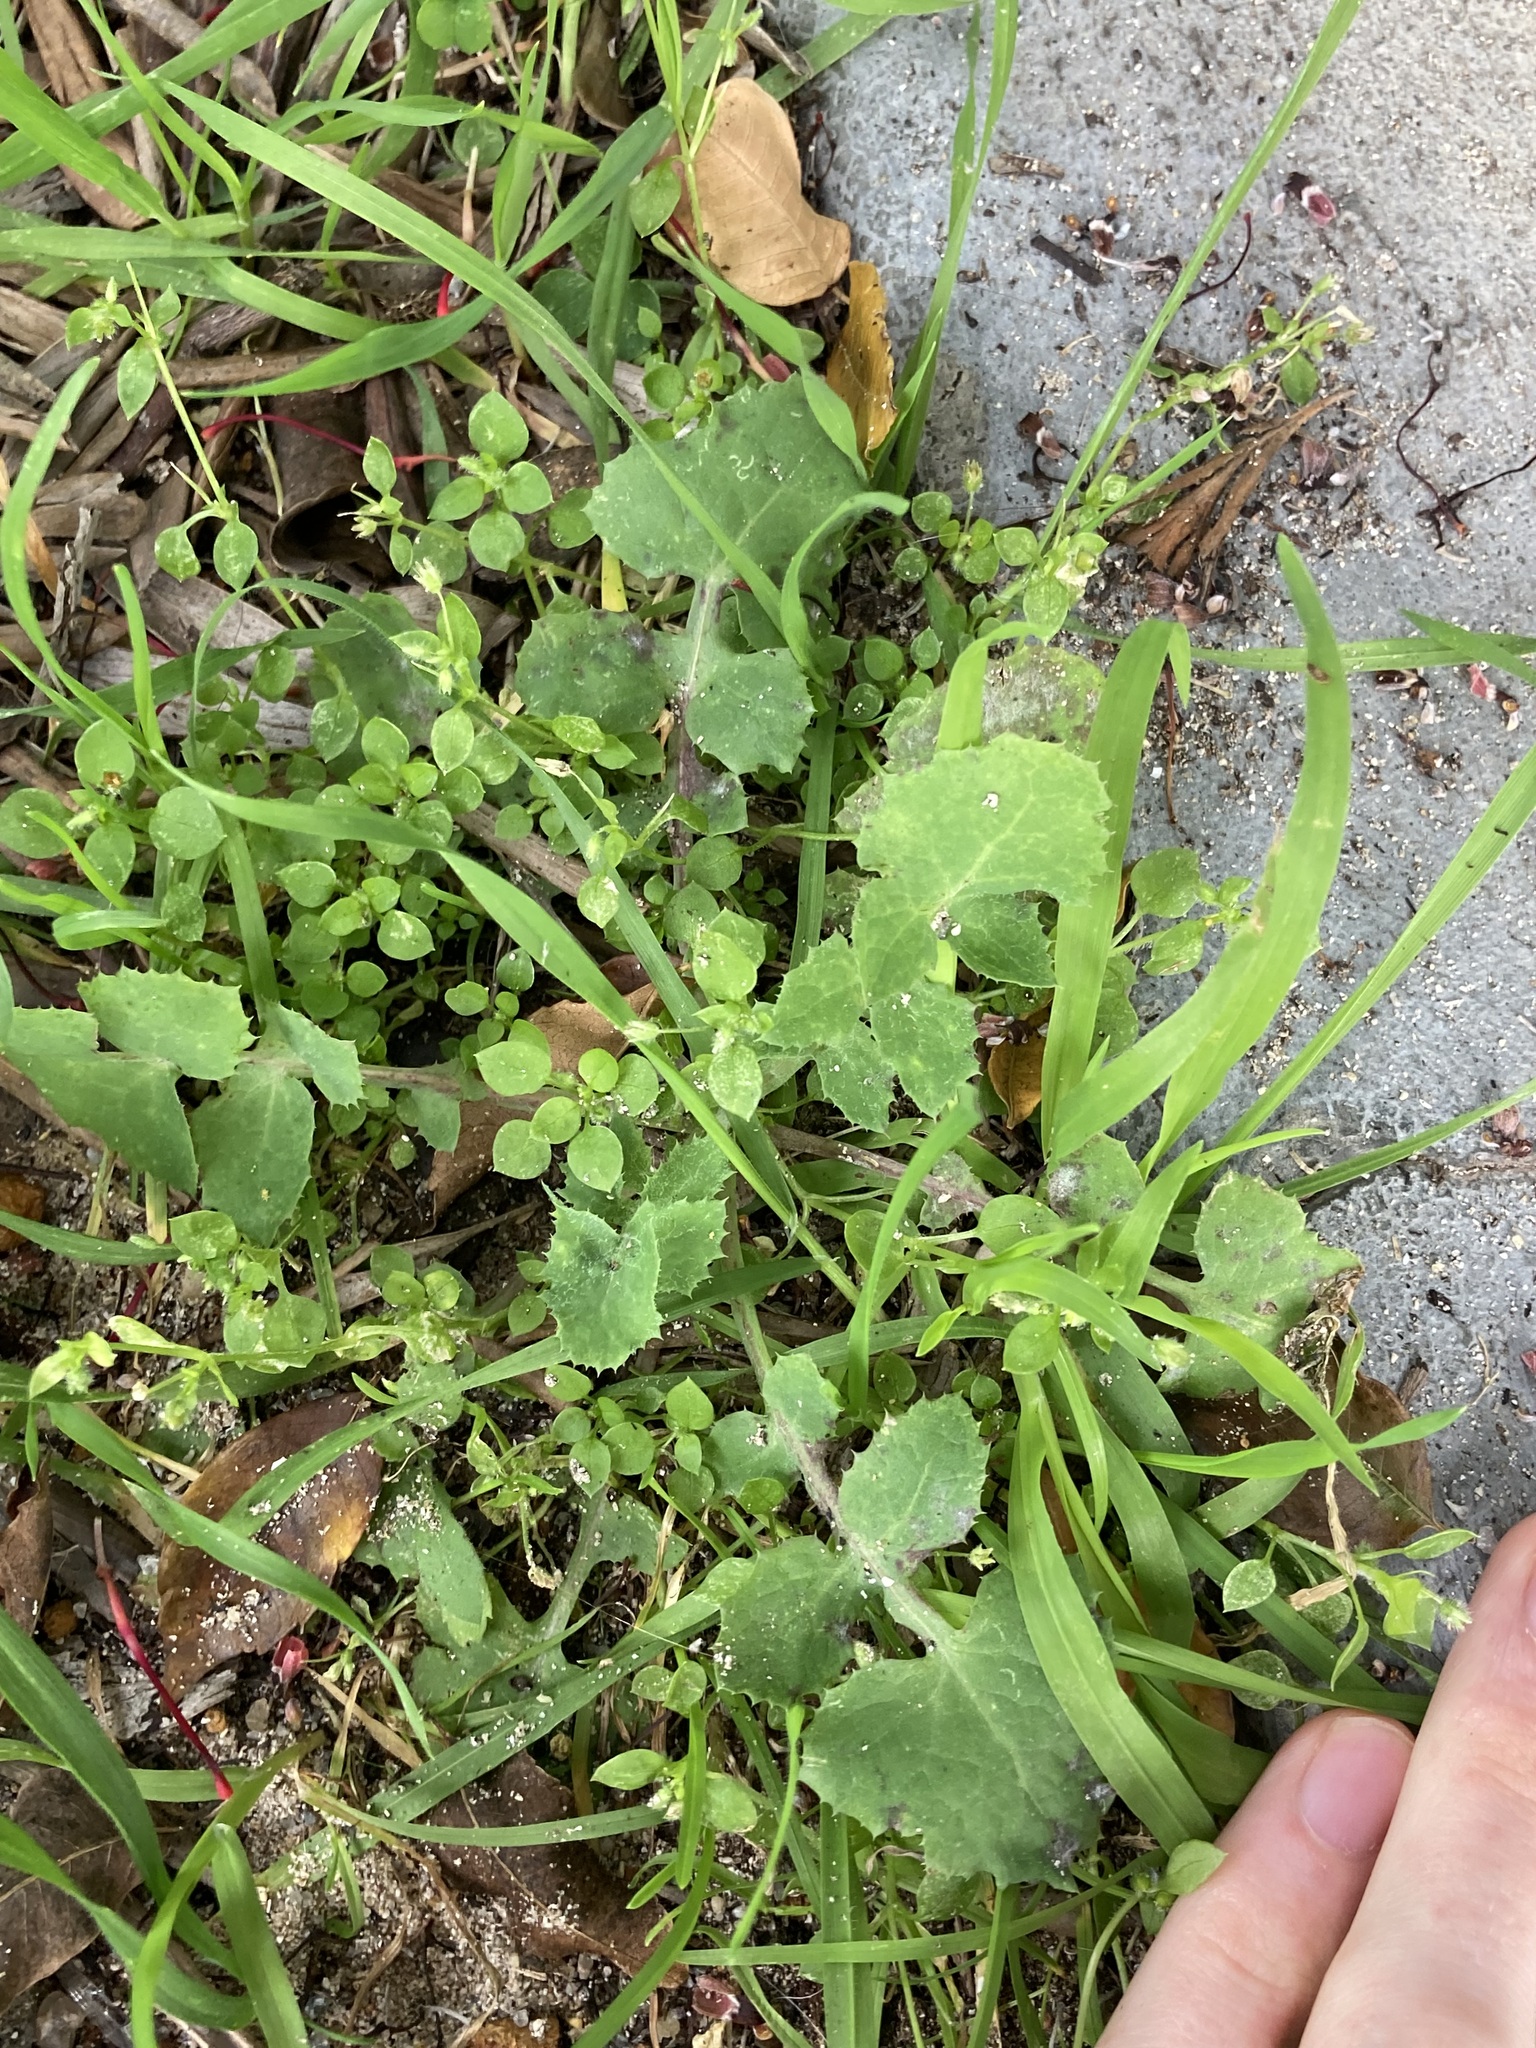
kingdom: Plantae
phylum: Tracheophyta
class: Magnoliopsida
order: Asterales
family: Asteraceae
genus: Sonchus
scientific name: Sonchus oleraceus
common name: Common sowthistle
